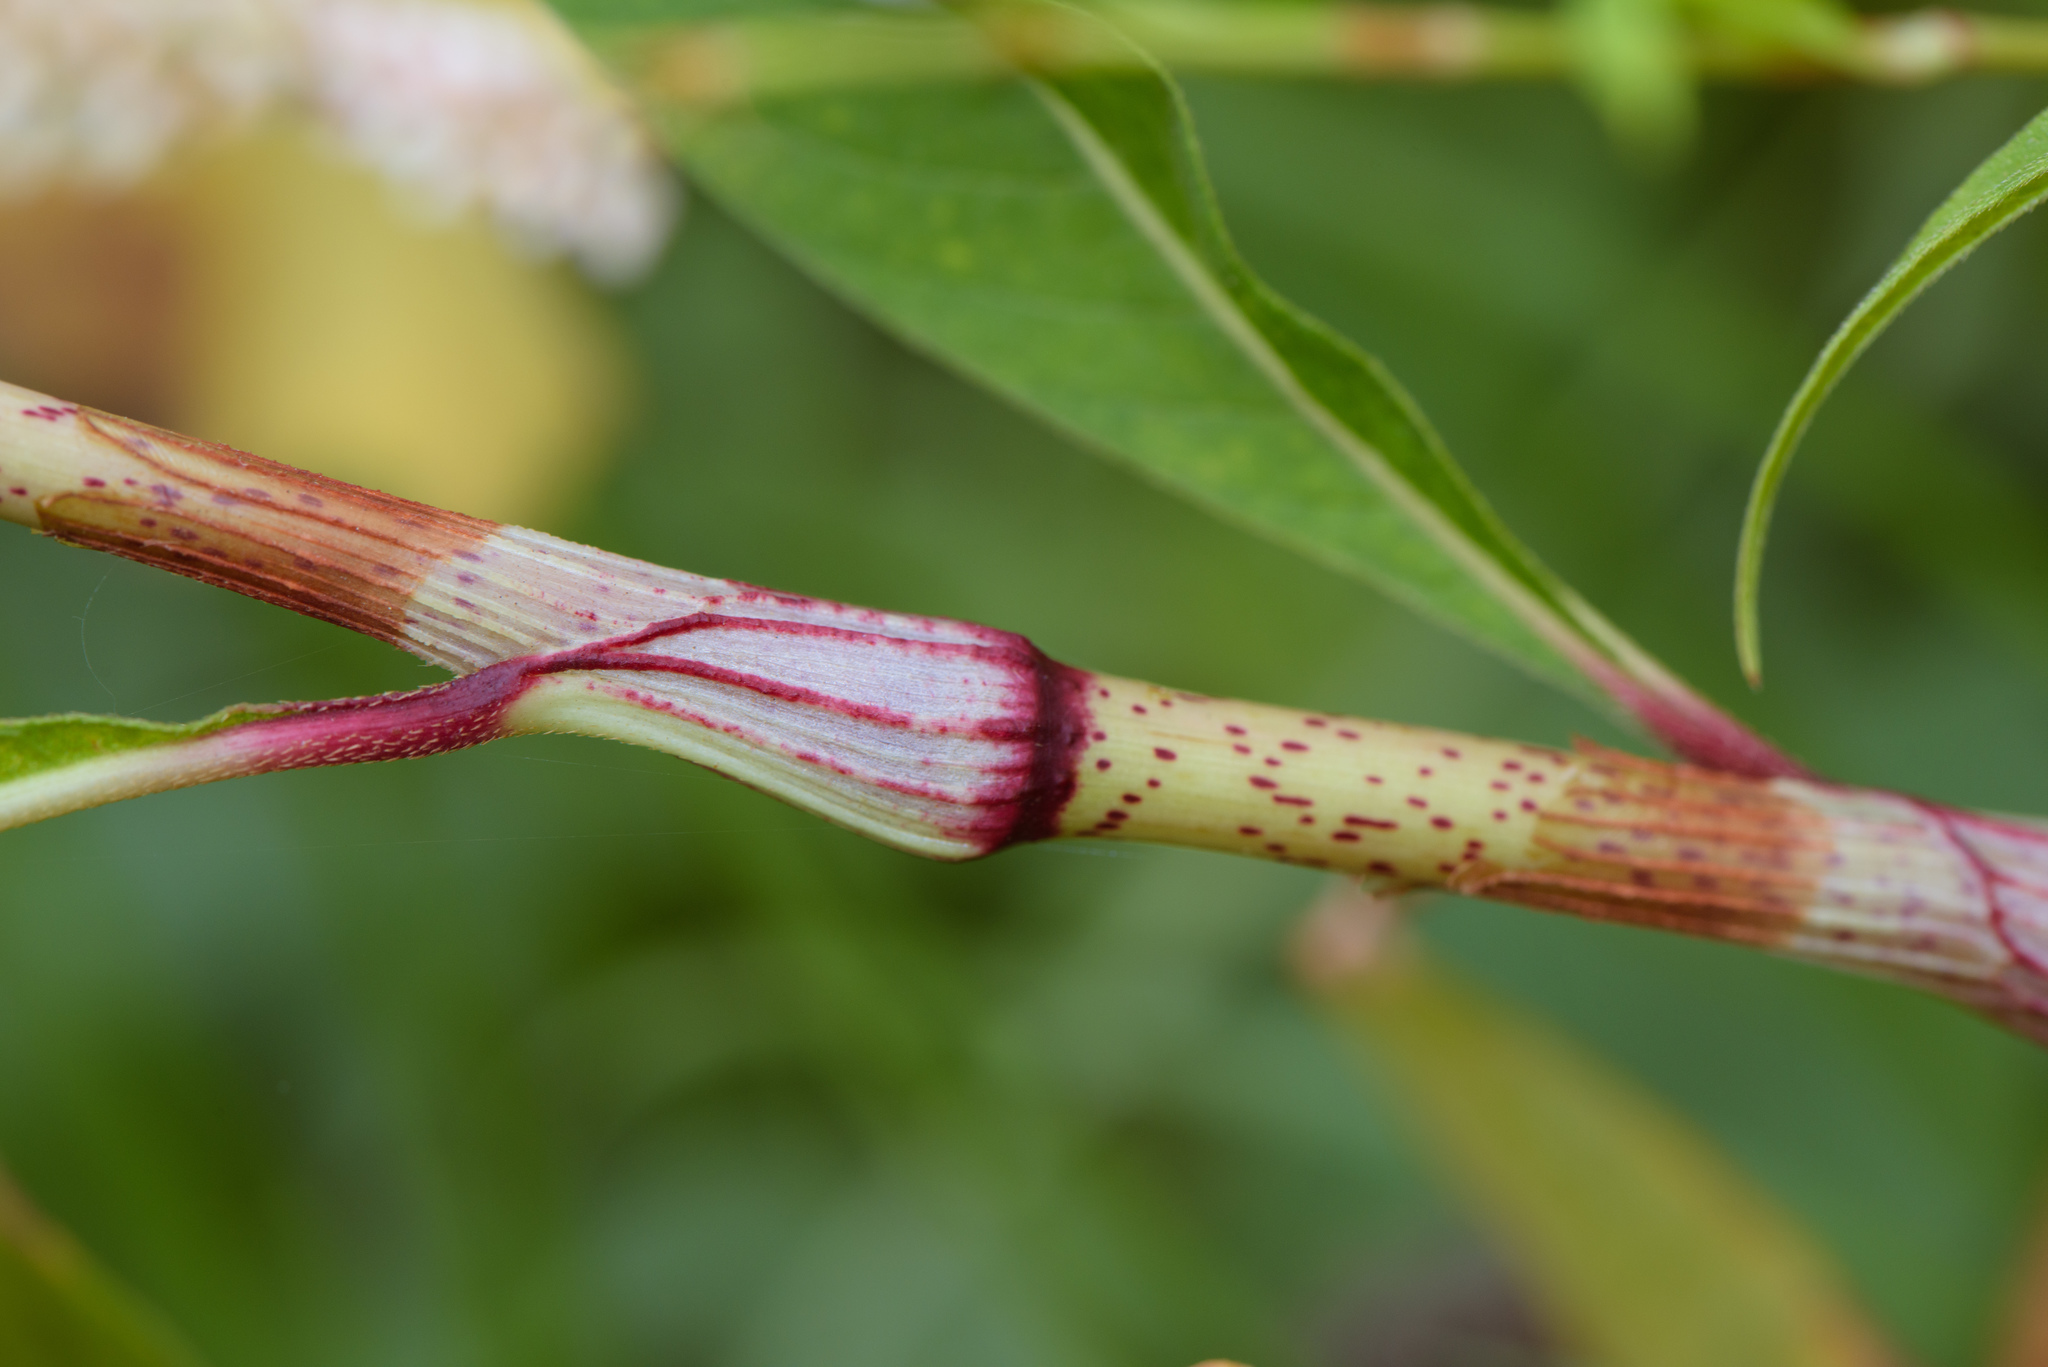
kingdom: Plantae
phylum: Tracheophyta
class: Magnoliopsida
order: Caryophyllales
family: Polygonaceae
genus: Persicaria
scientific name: Persicaria lapathifolia
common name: Curlytop knotweed
